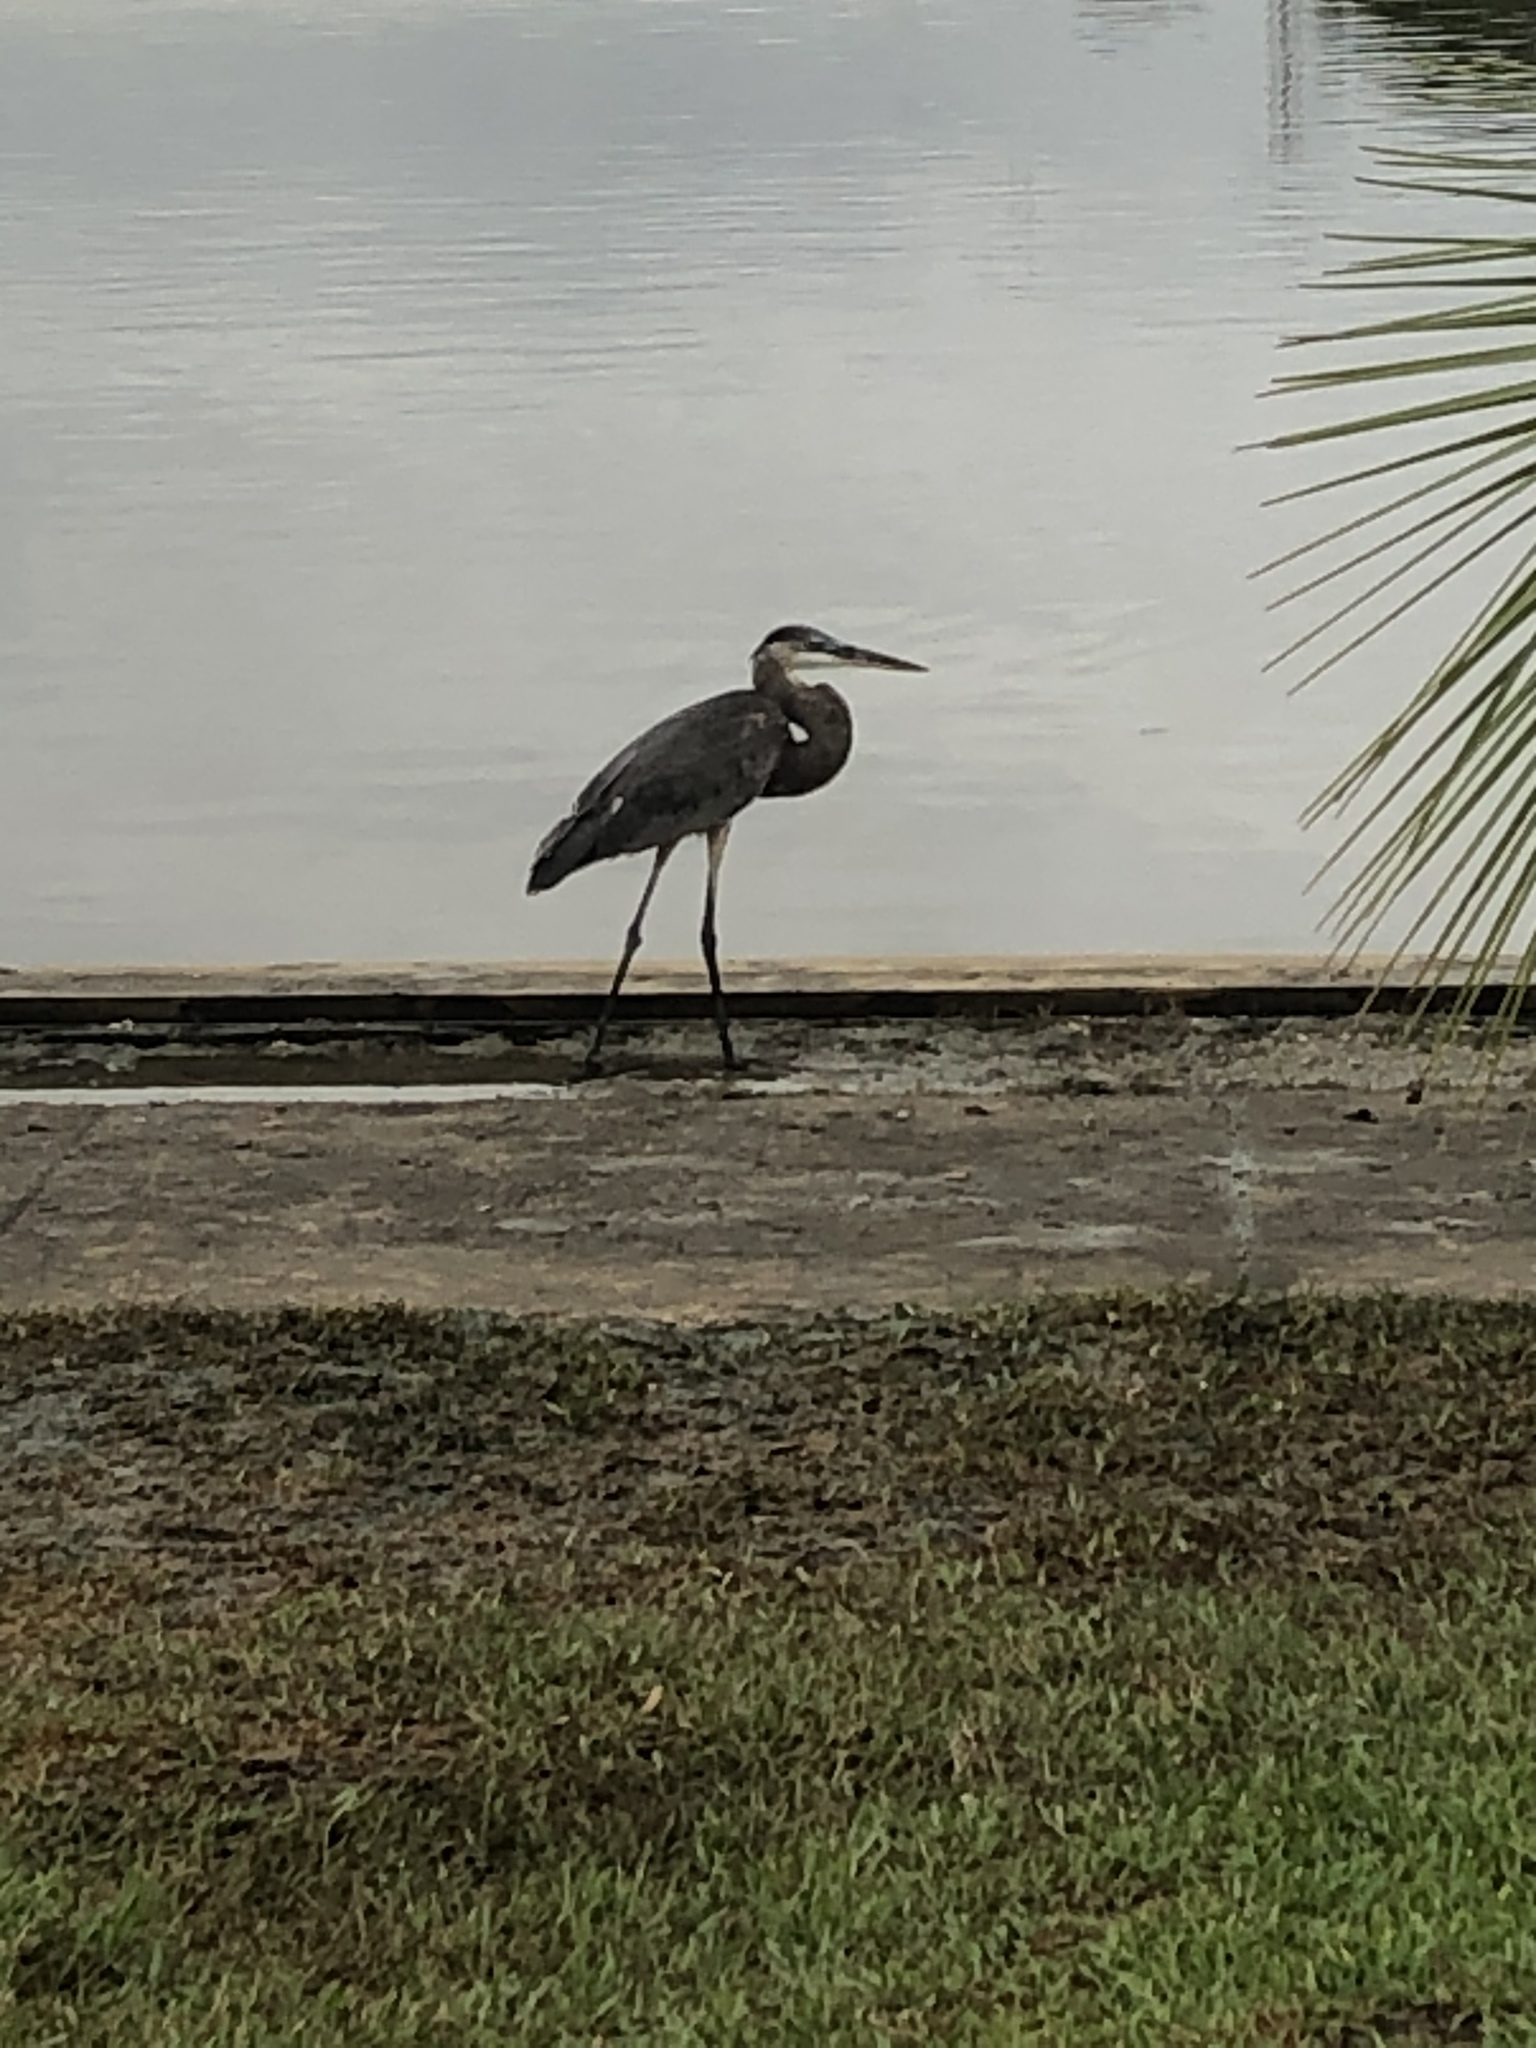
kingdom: Animalia
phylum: Chordata
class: Aves
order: Pelecaniformes
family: Ardeidae
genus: Ardea
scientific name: Ardea herodias
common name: Great blue heron
